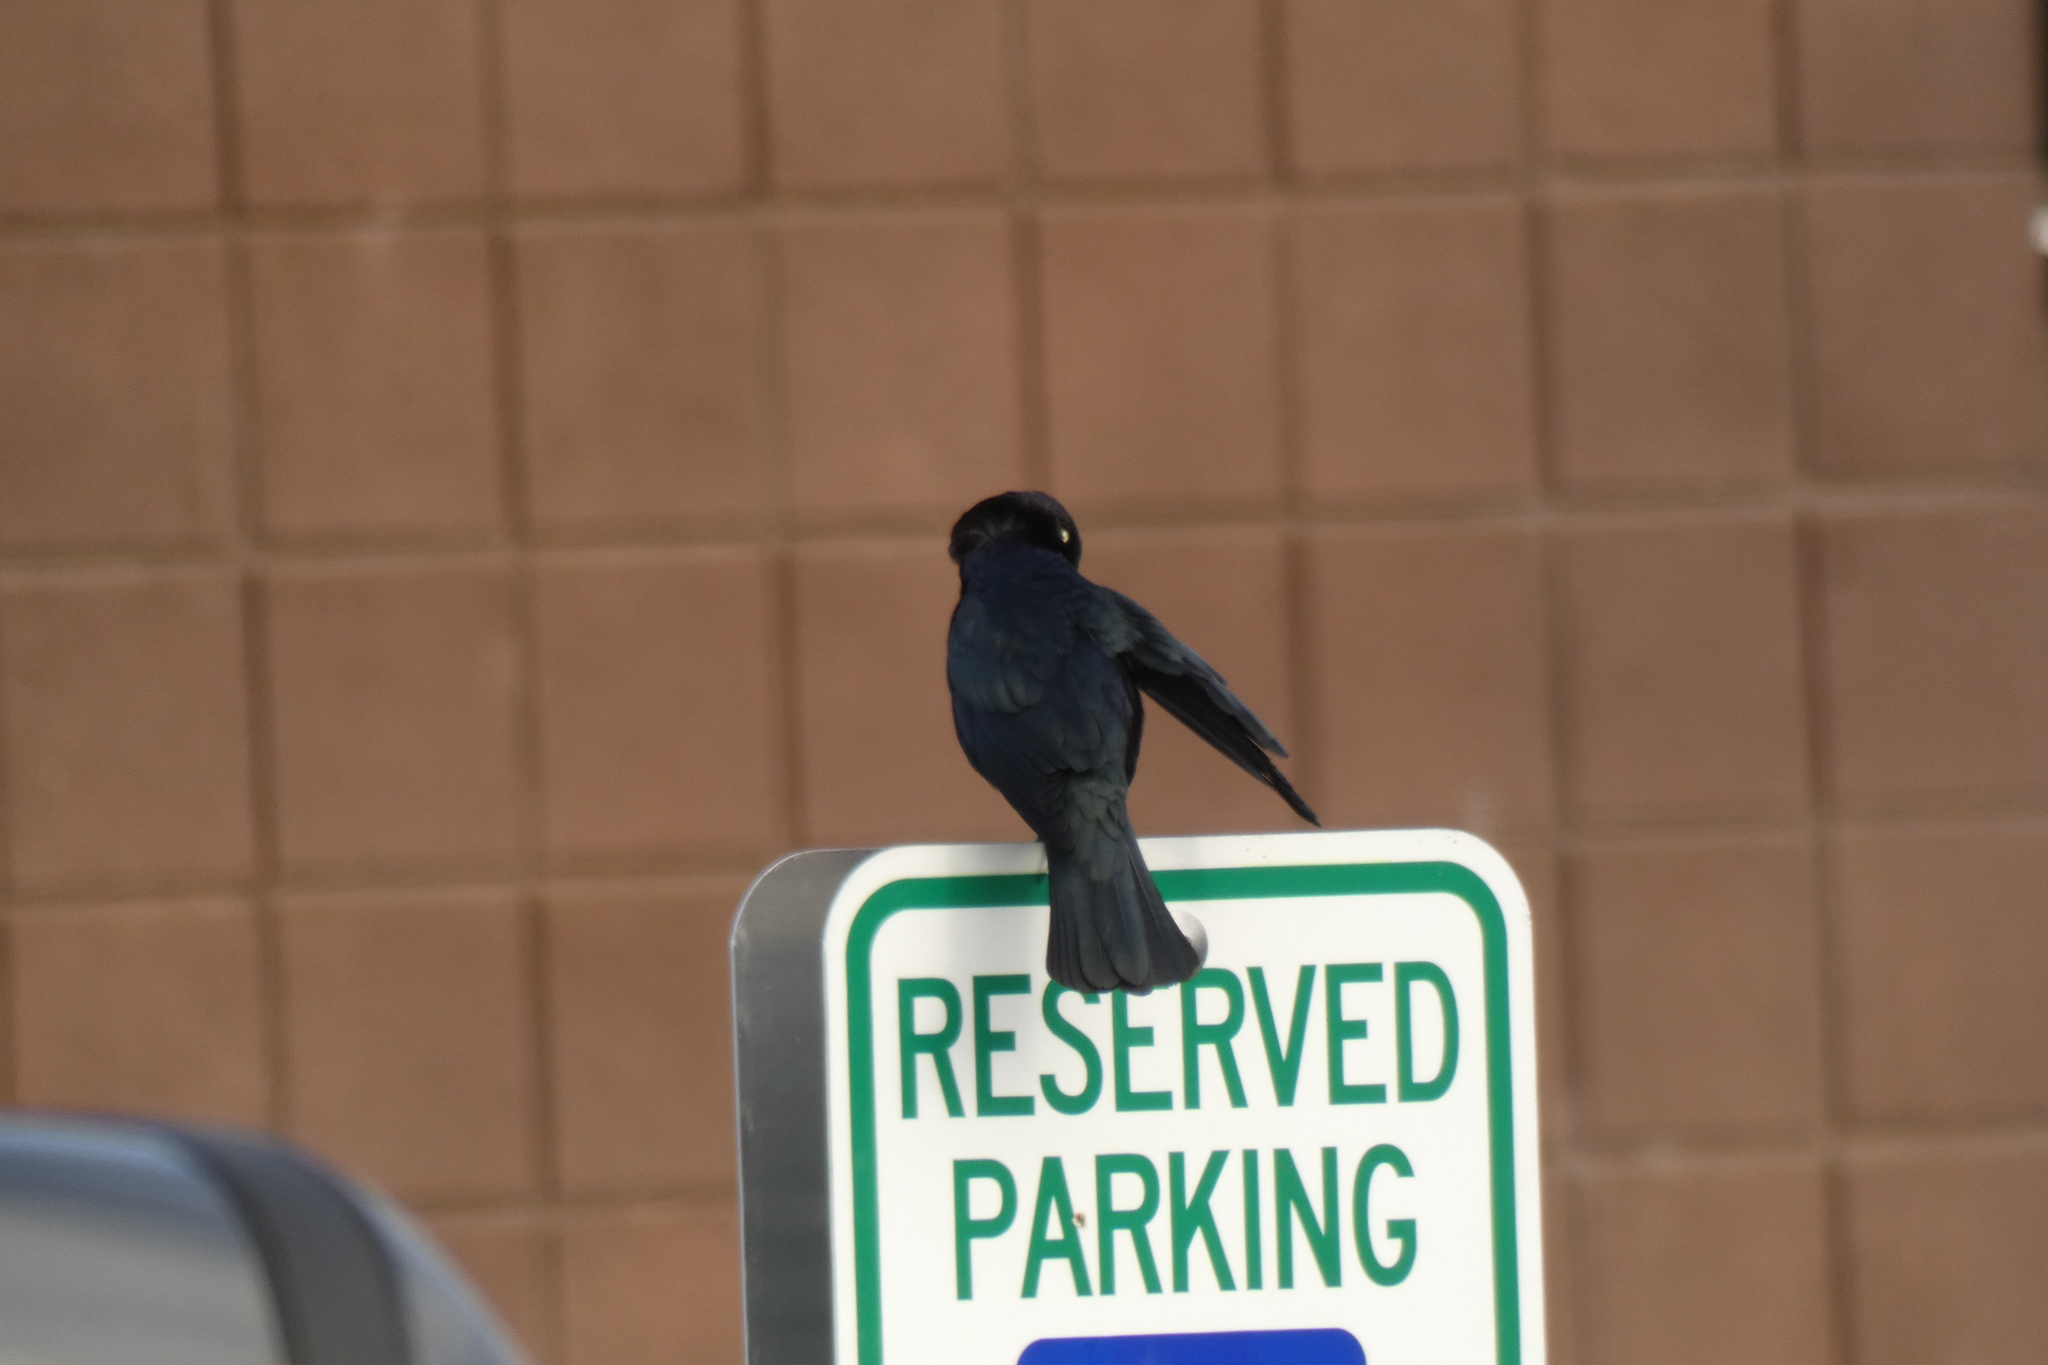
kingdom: Animalia
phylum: Chordata
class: Aves
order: Passeriformes
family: Icteridae
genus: Euphagus
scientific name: Euphagus cyanocephalus
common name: Brewer's blackbird
